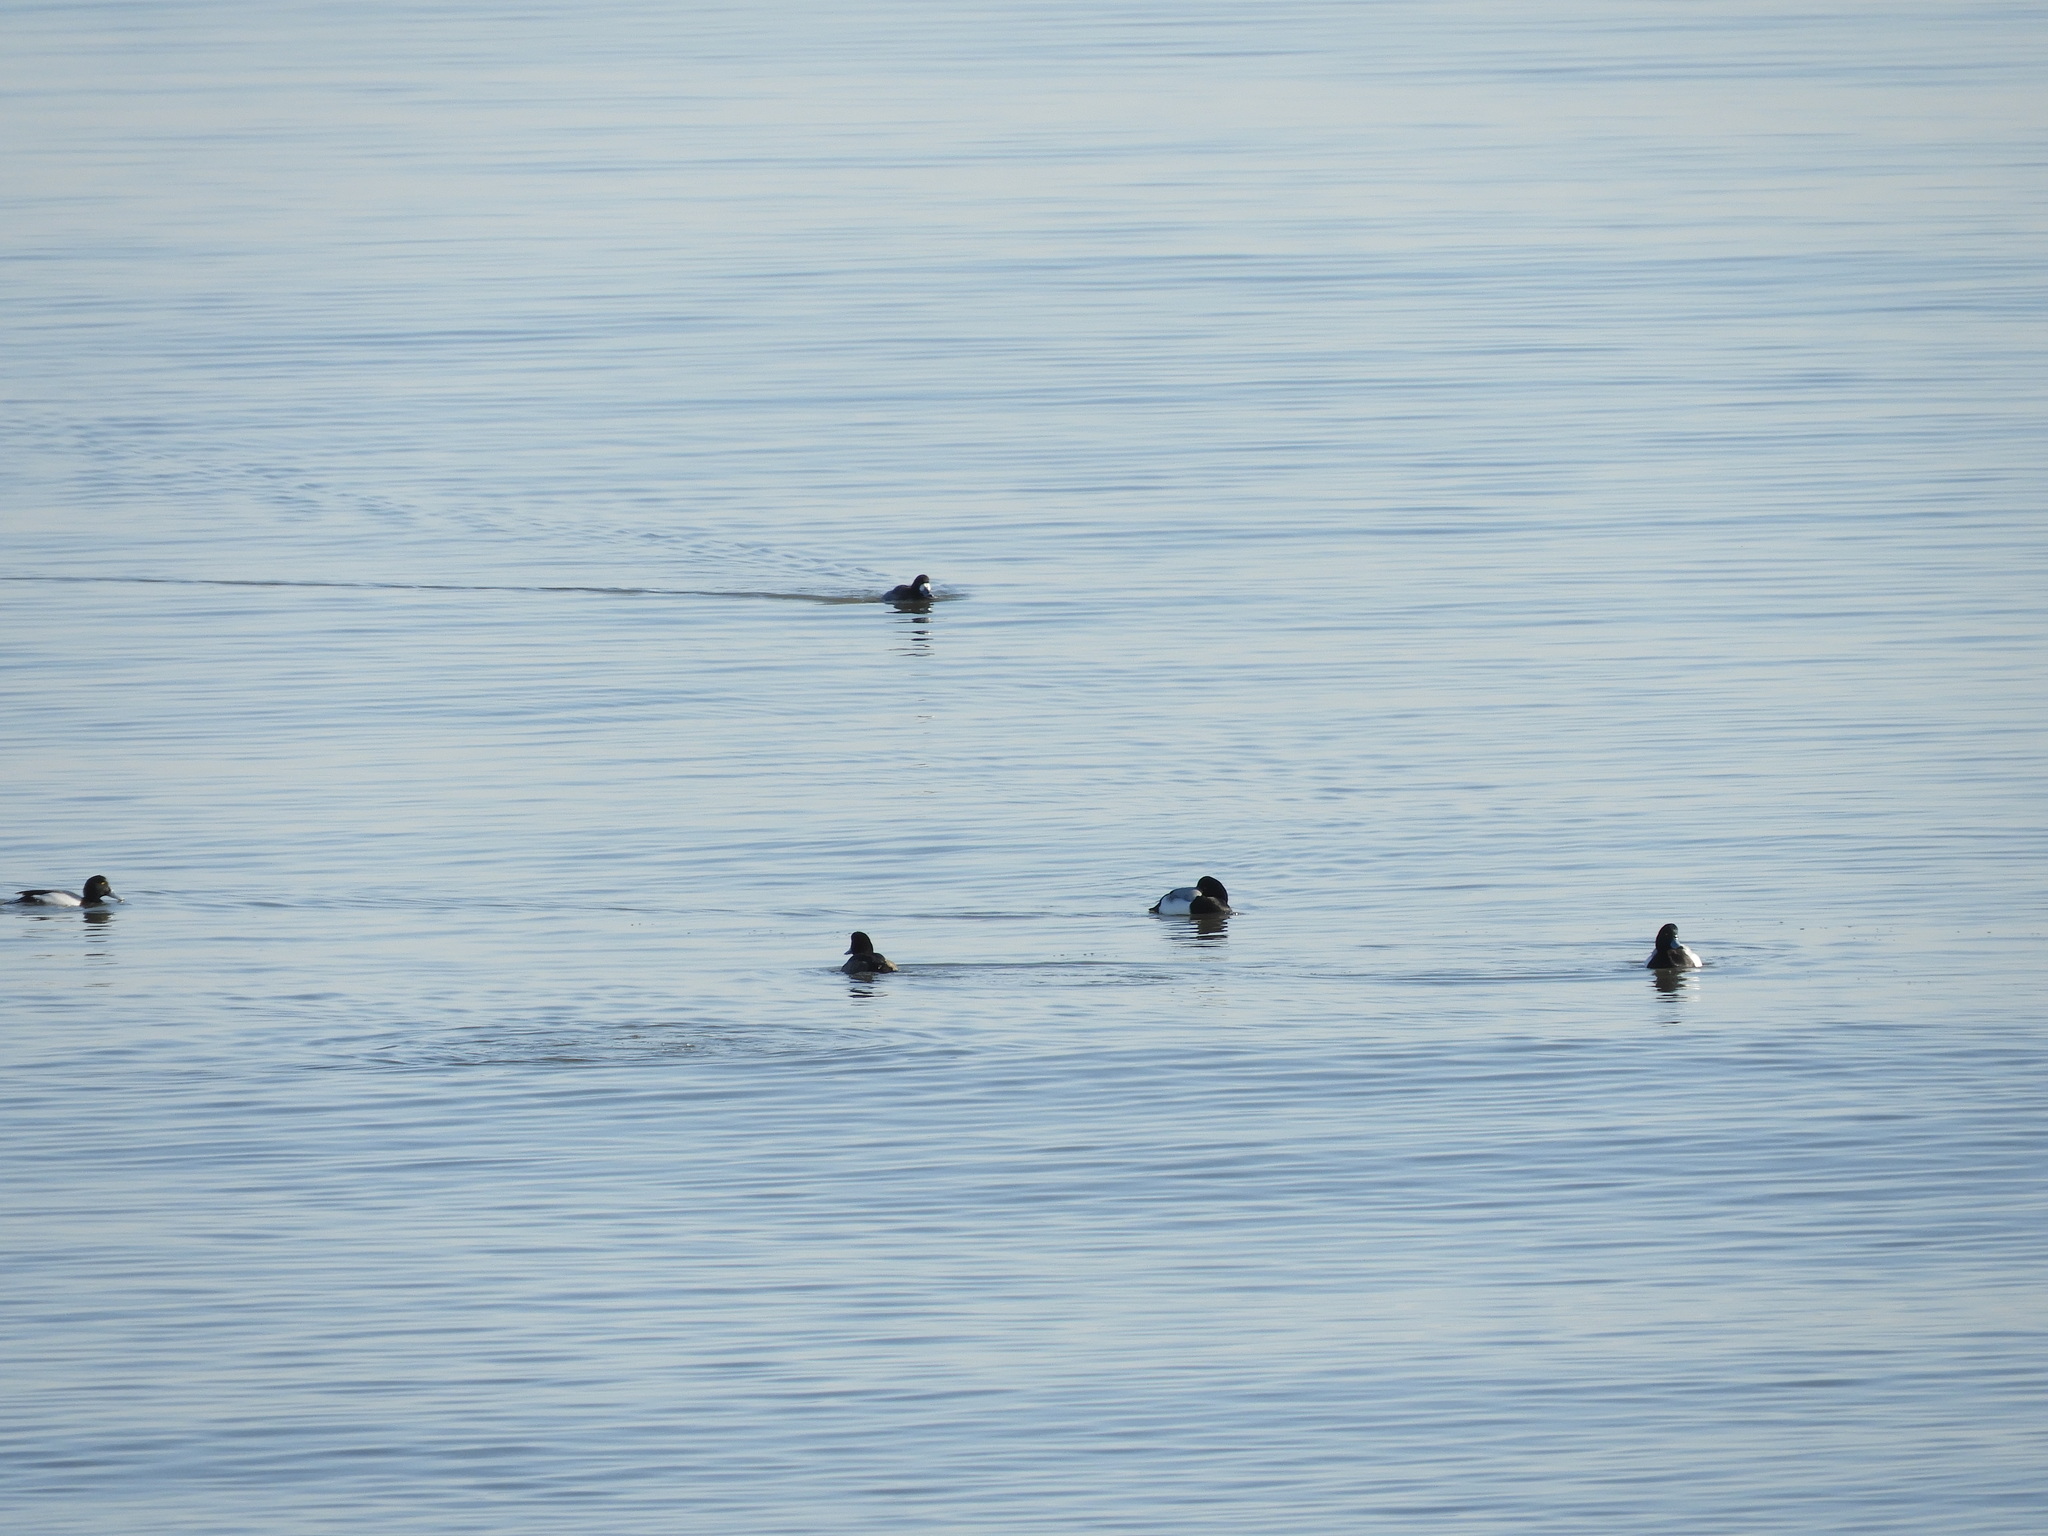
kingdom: Animalia
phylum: Chordata
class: Aves
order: Anseriformes
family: Anatidae
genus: Aythya
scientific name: Aythya marila
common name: Greater scaup
